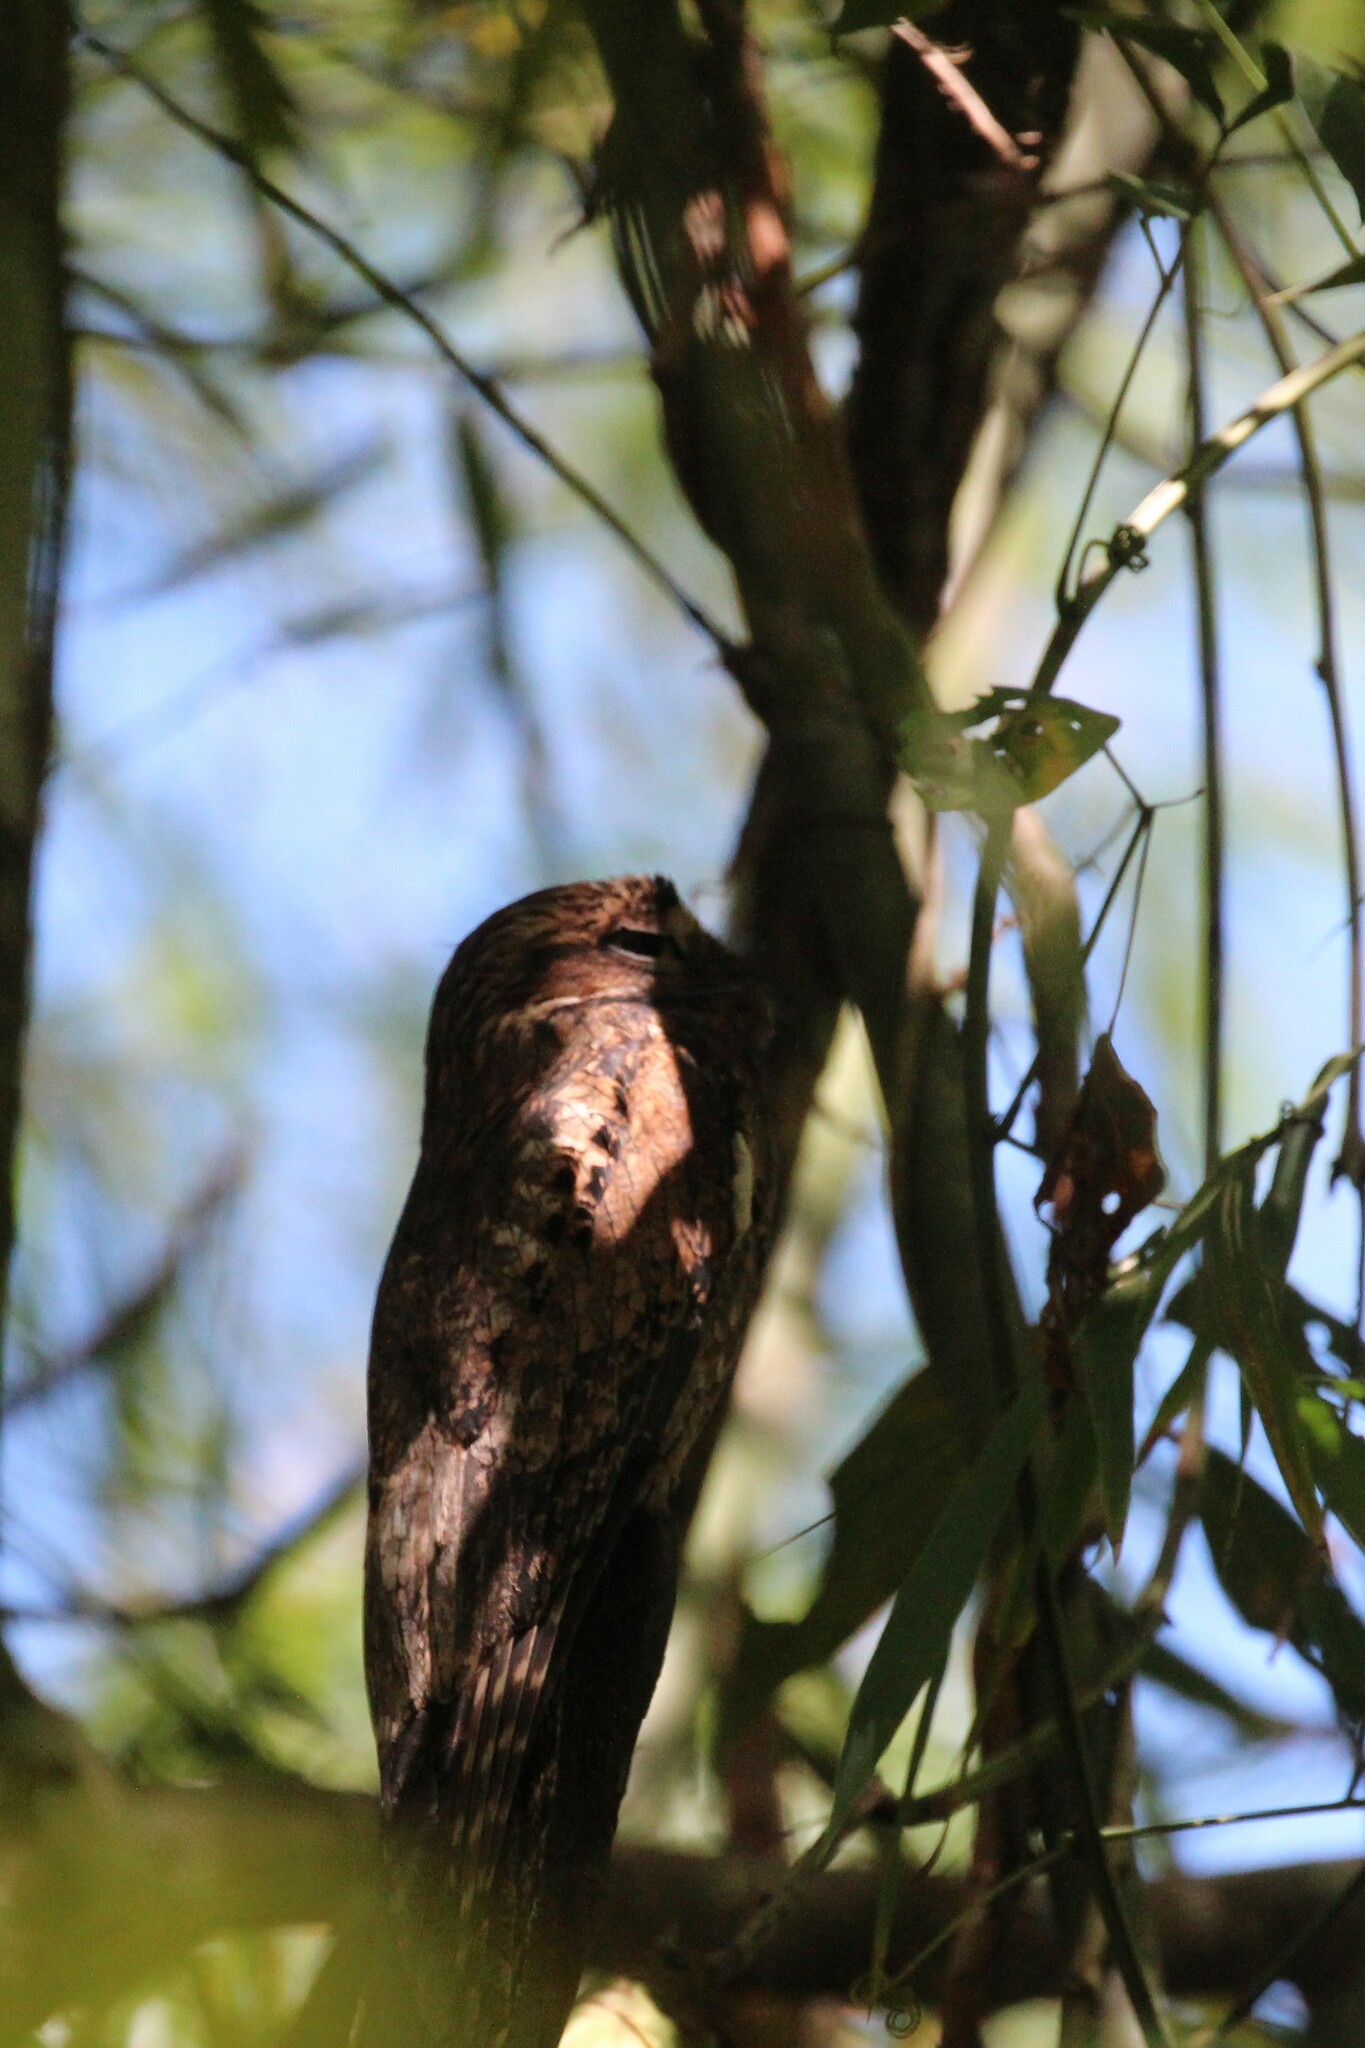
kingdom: Animalia
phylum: Chordata
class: Aves
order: Nyctibiiformes
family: Nyctibiidae
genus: Nyctibius
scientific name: Nyctibius griseus
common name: Common potoo
